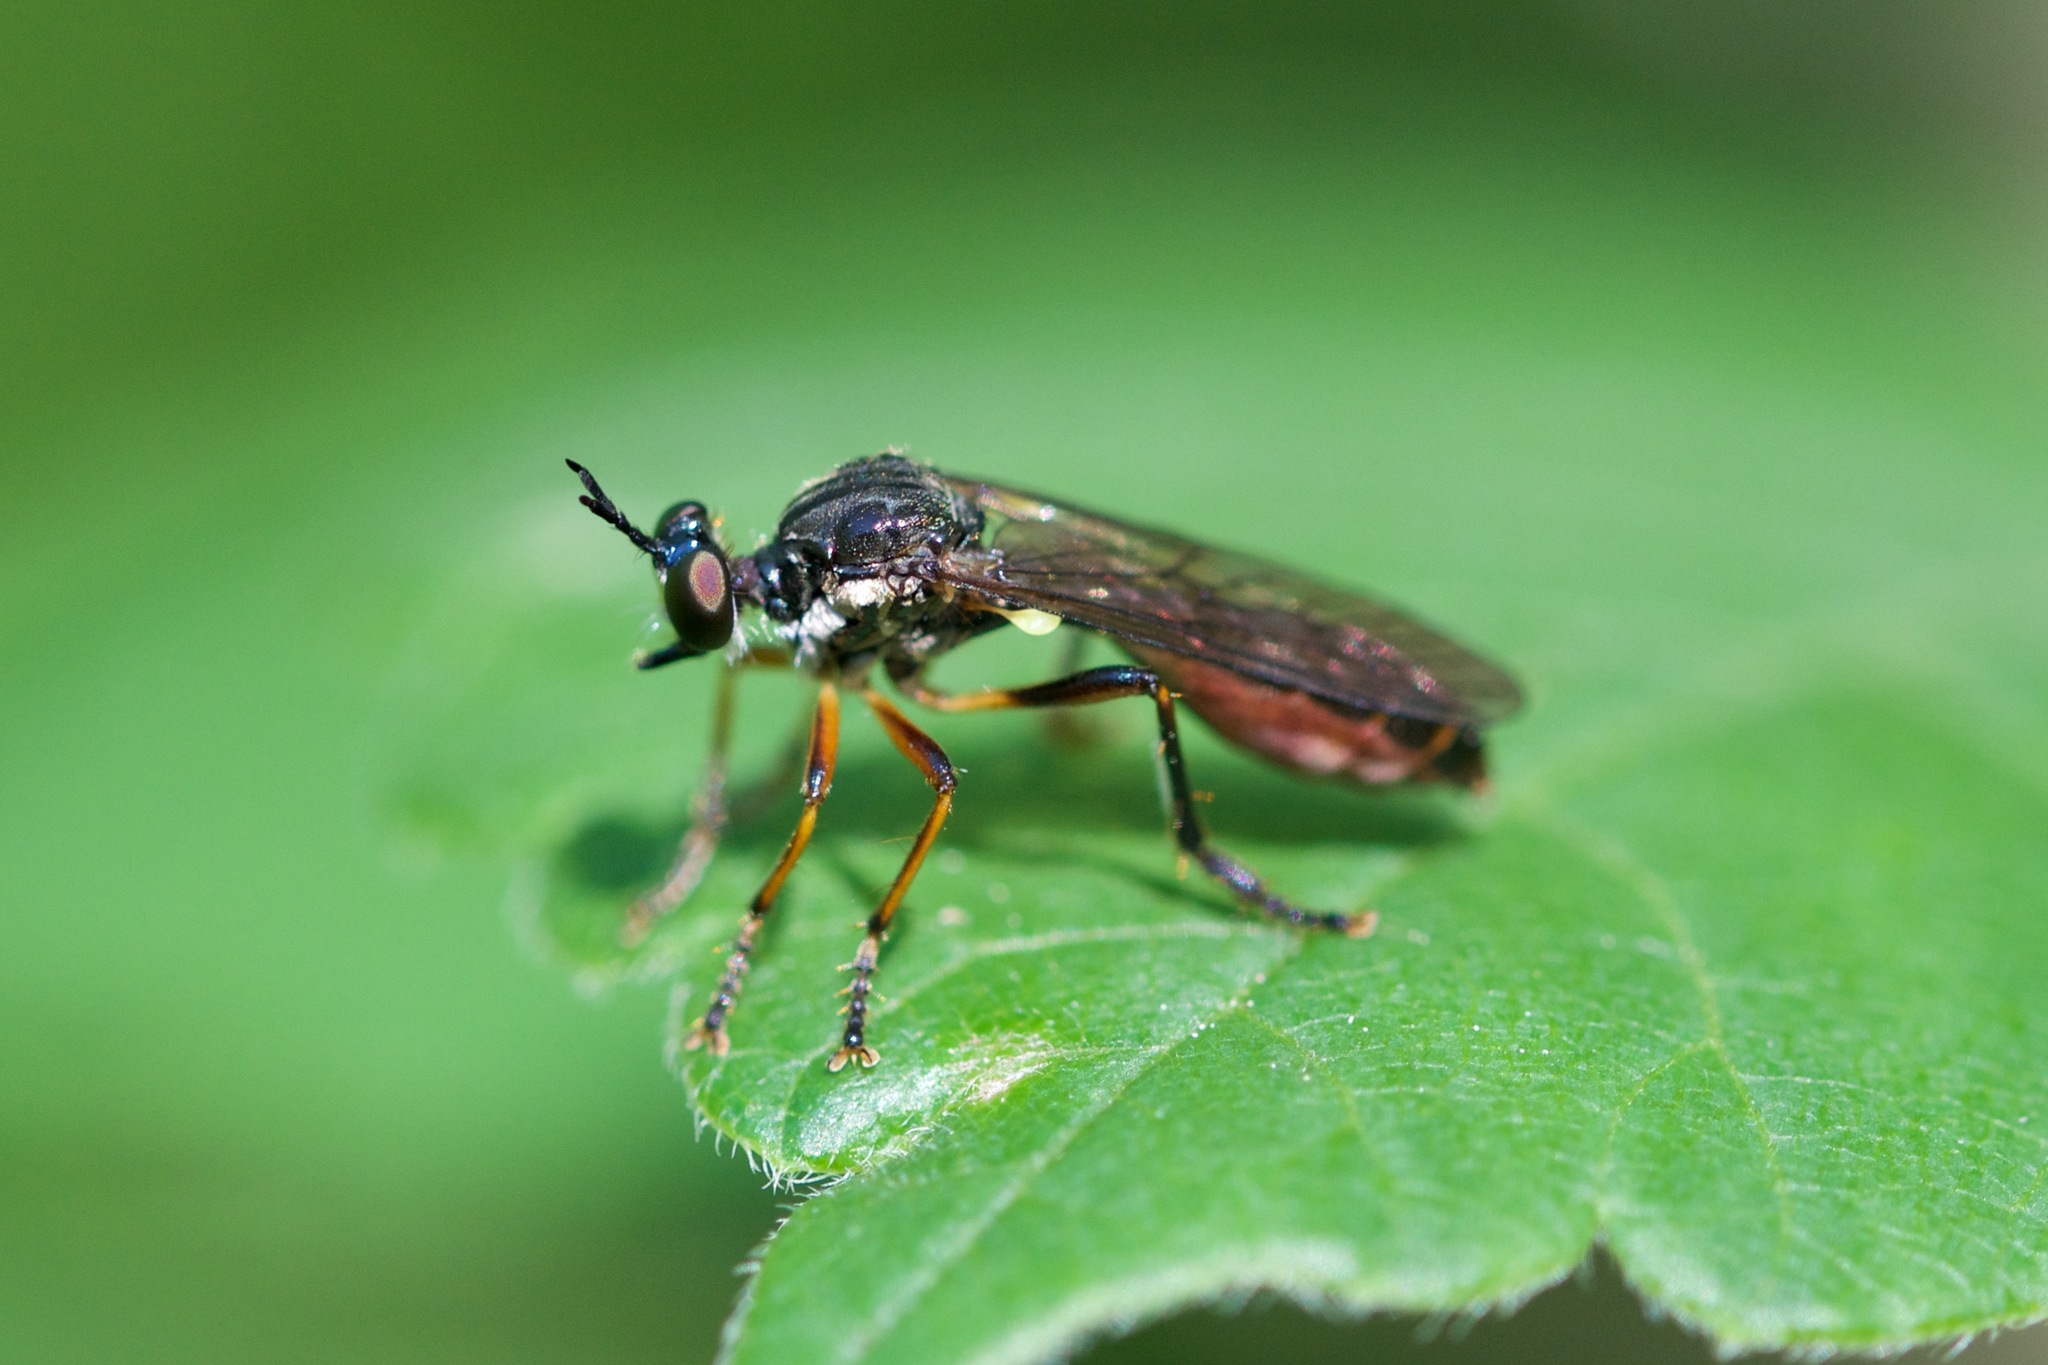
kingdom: Animalia
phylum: Arthropoda
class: Insecta
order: Diptera
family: Asilidae
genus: Dioctria
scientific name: Dioctria hyalipennis
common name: Stripe-legged robberfly
